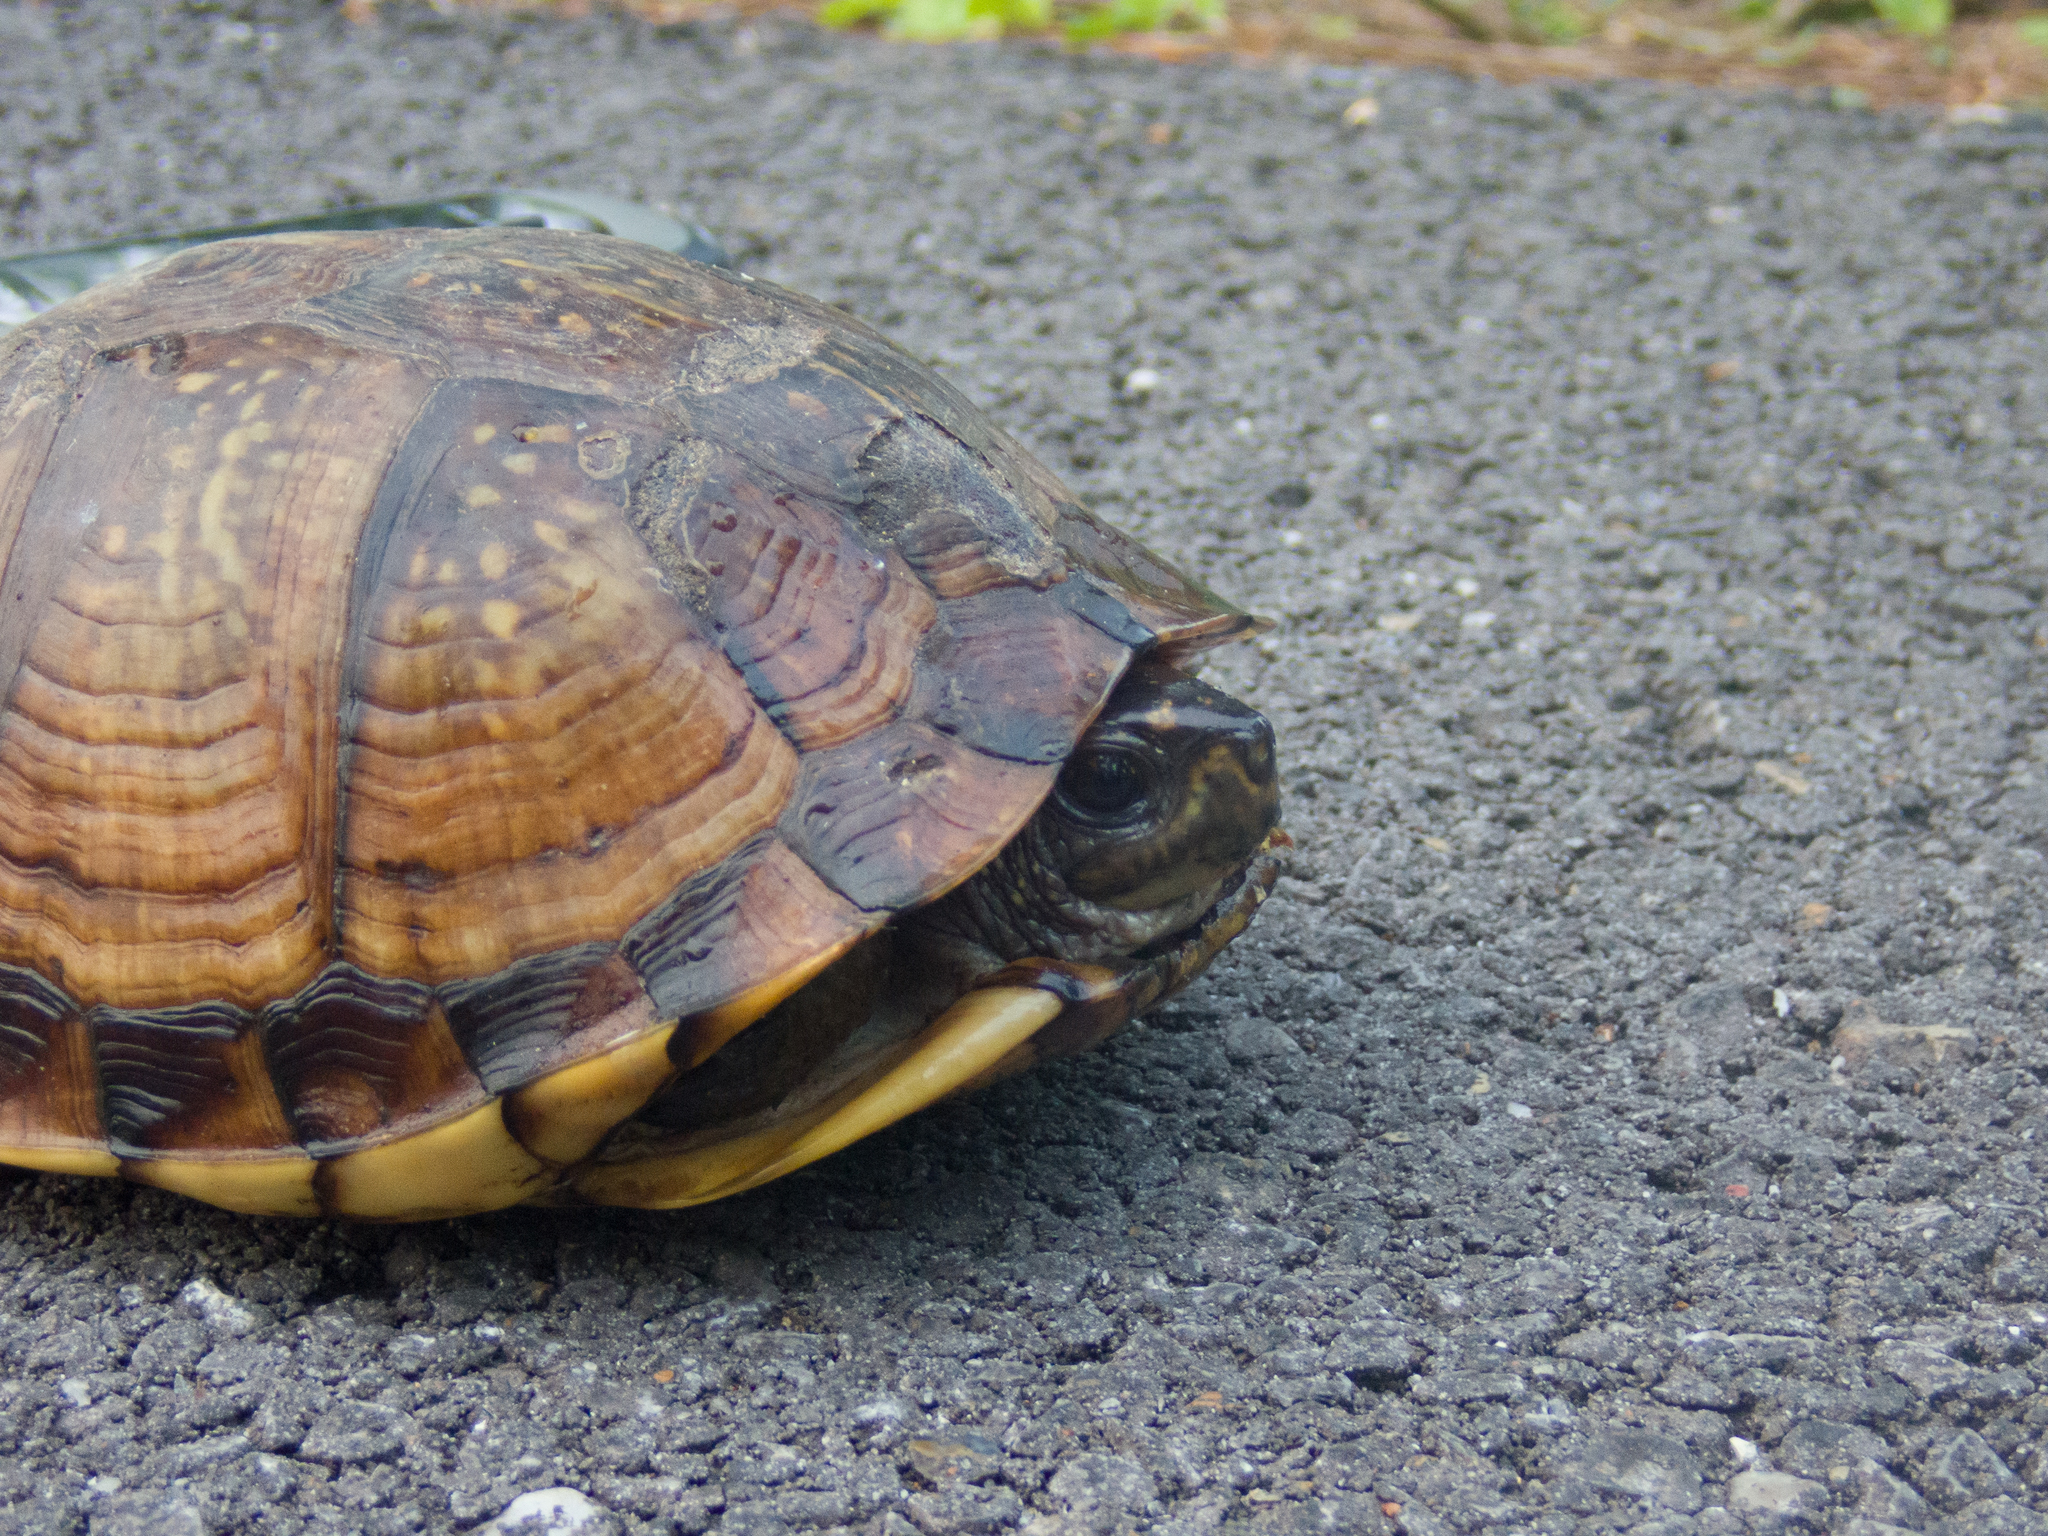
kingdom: Animalia
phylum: Chordata
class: Testudines
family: Emydidae
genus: Terrapene
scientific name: Terrapene carolina
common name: Common box turtle
